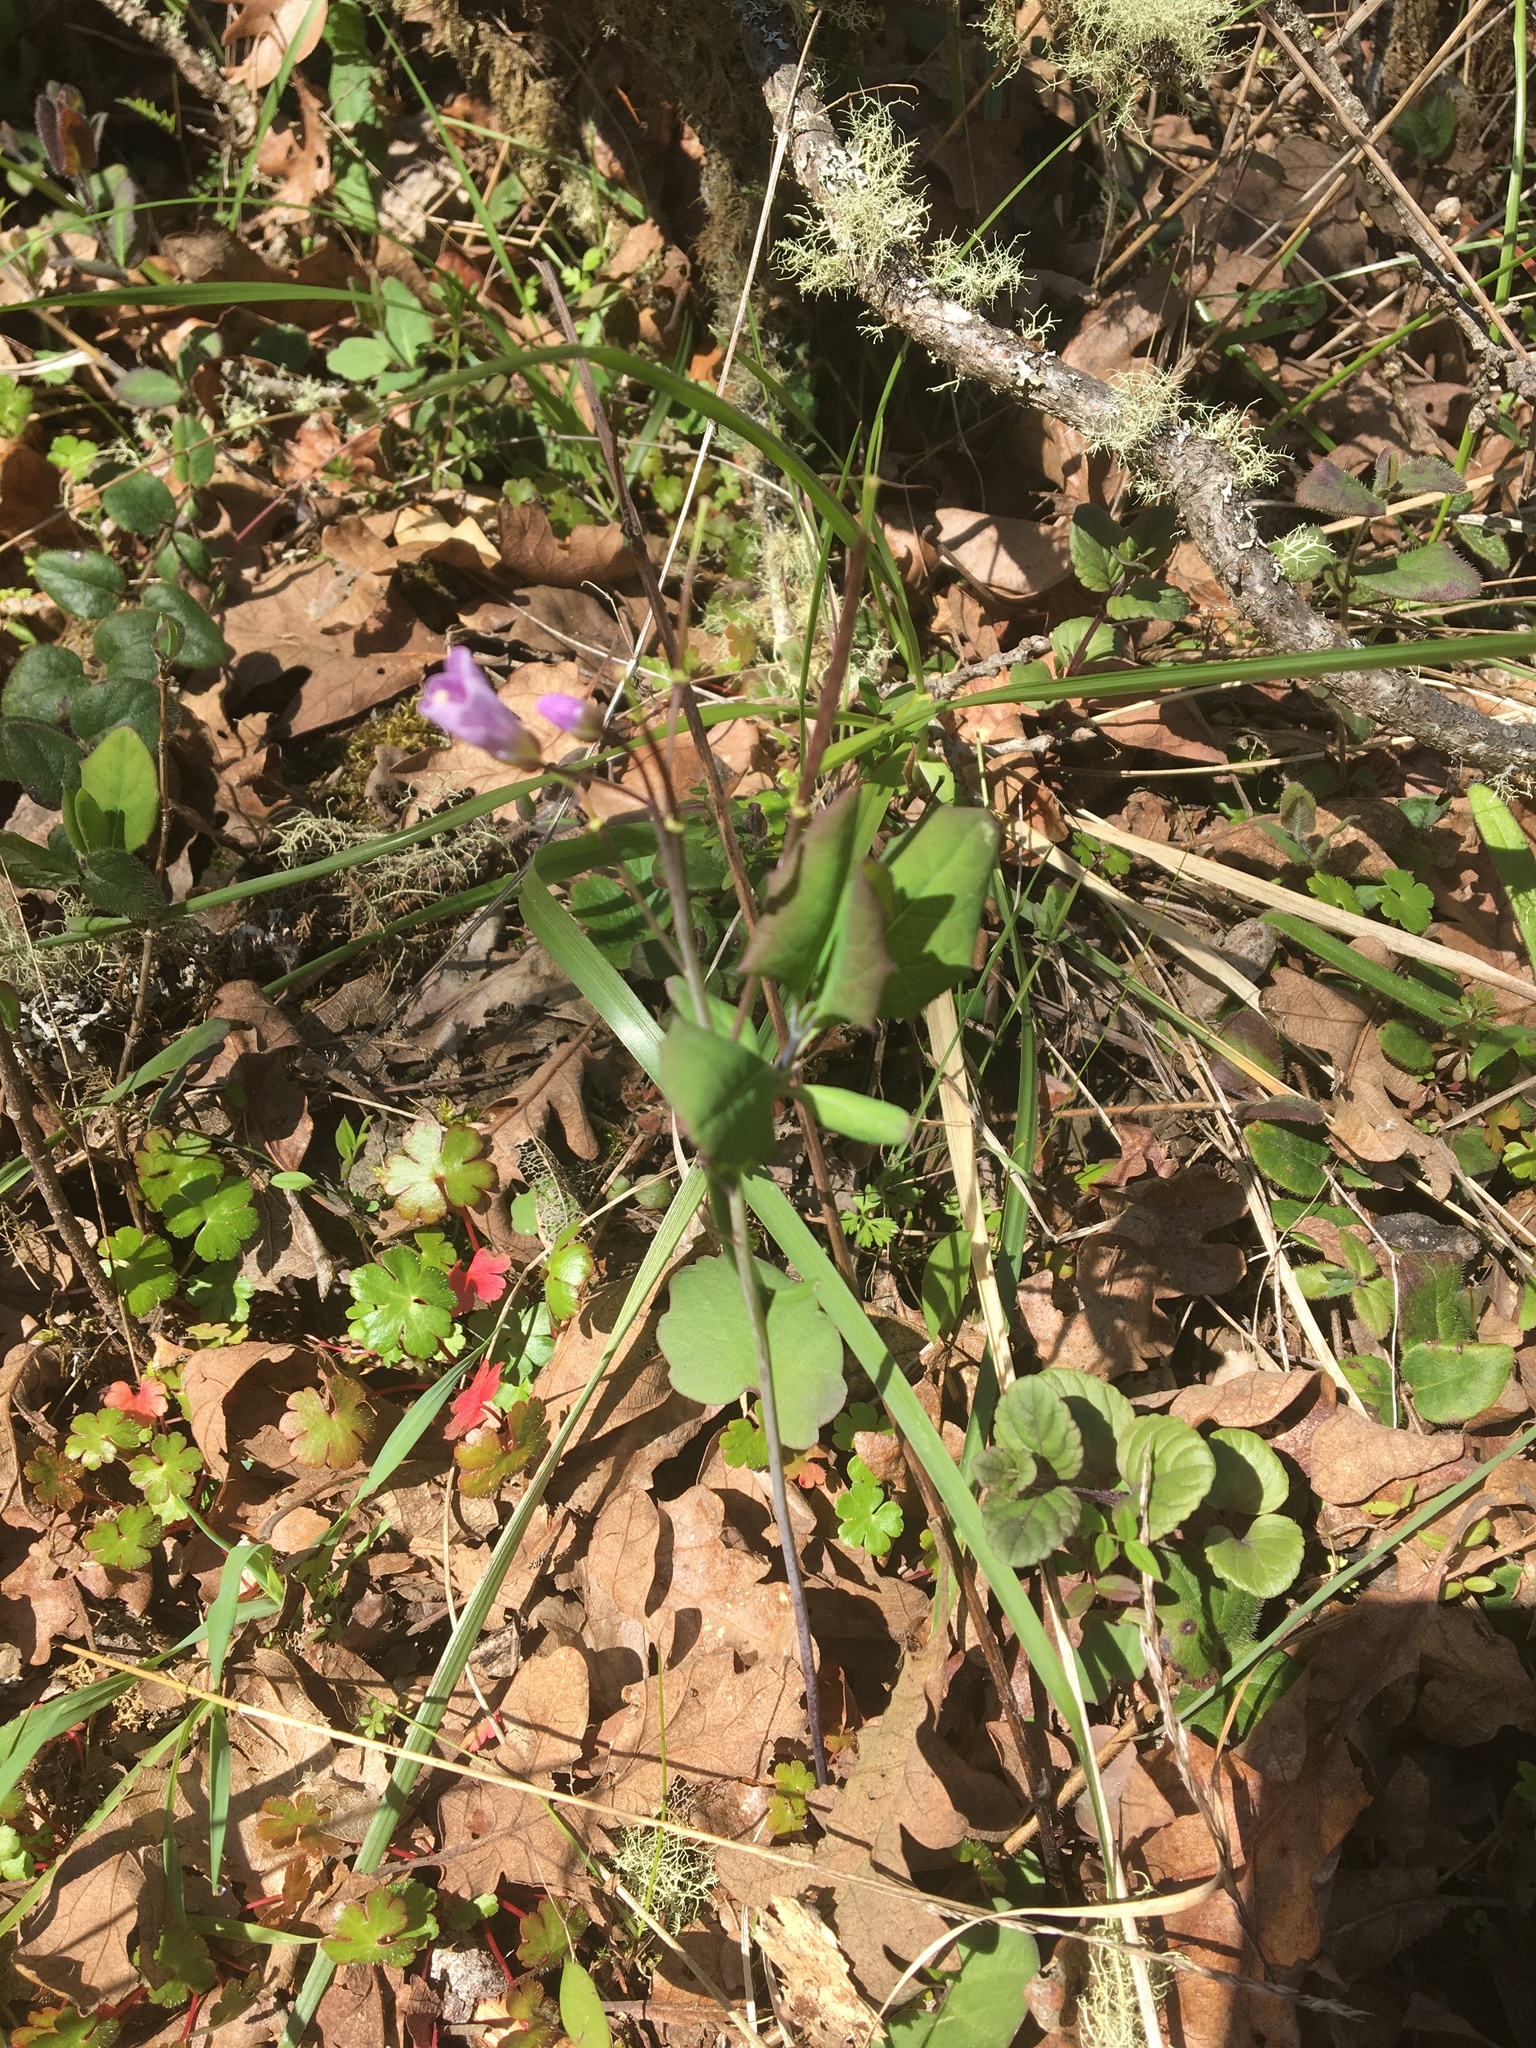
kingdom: Plantae
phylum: Tracheophyta
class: Magnoliopsida
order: Brassicales
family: Brassicaceae
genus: Cardamine
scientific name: Cardamine nuttallii
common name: Nuttall's toothwort
